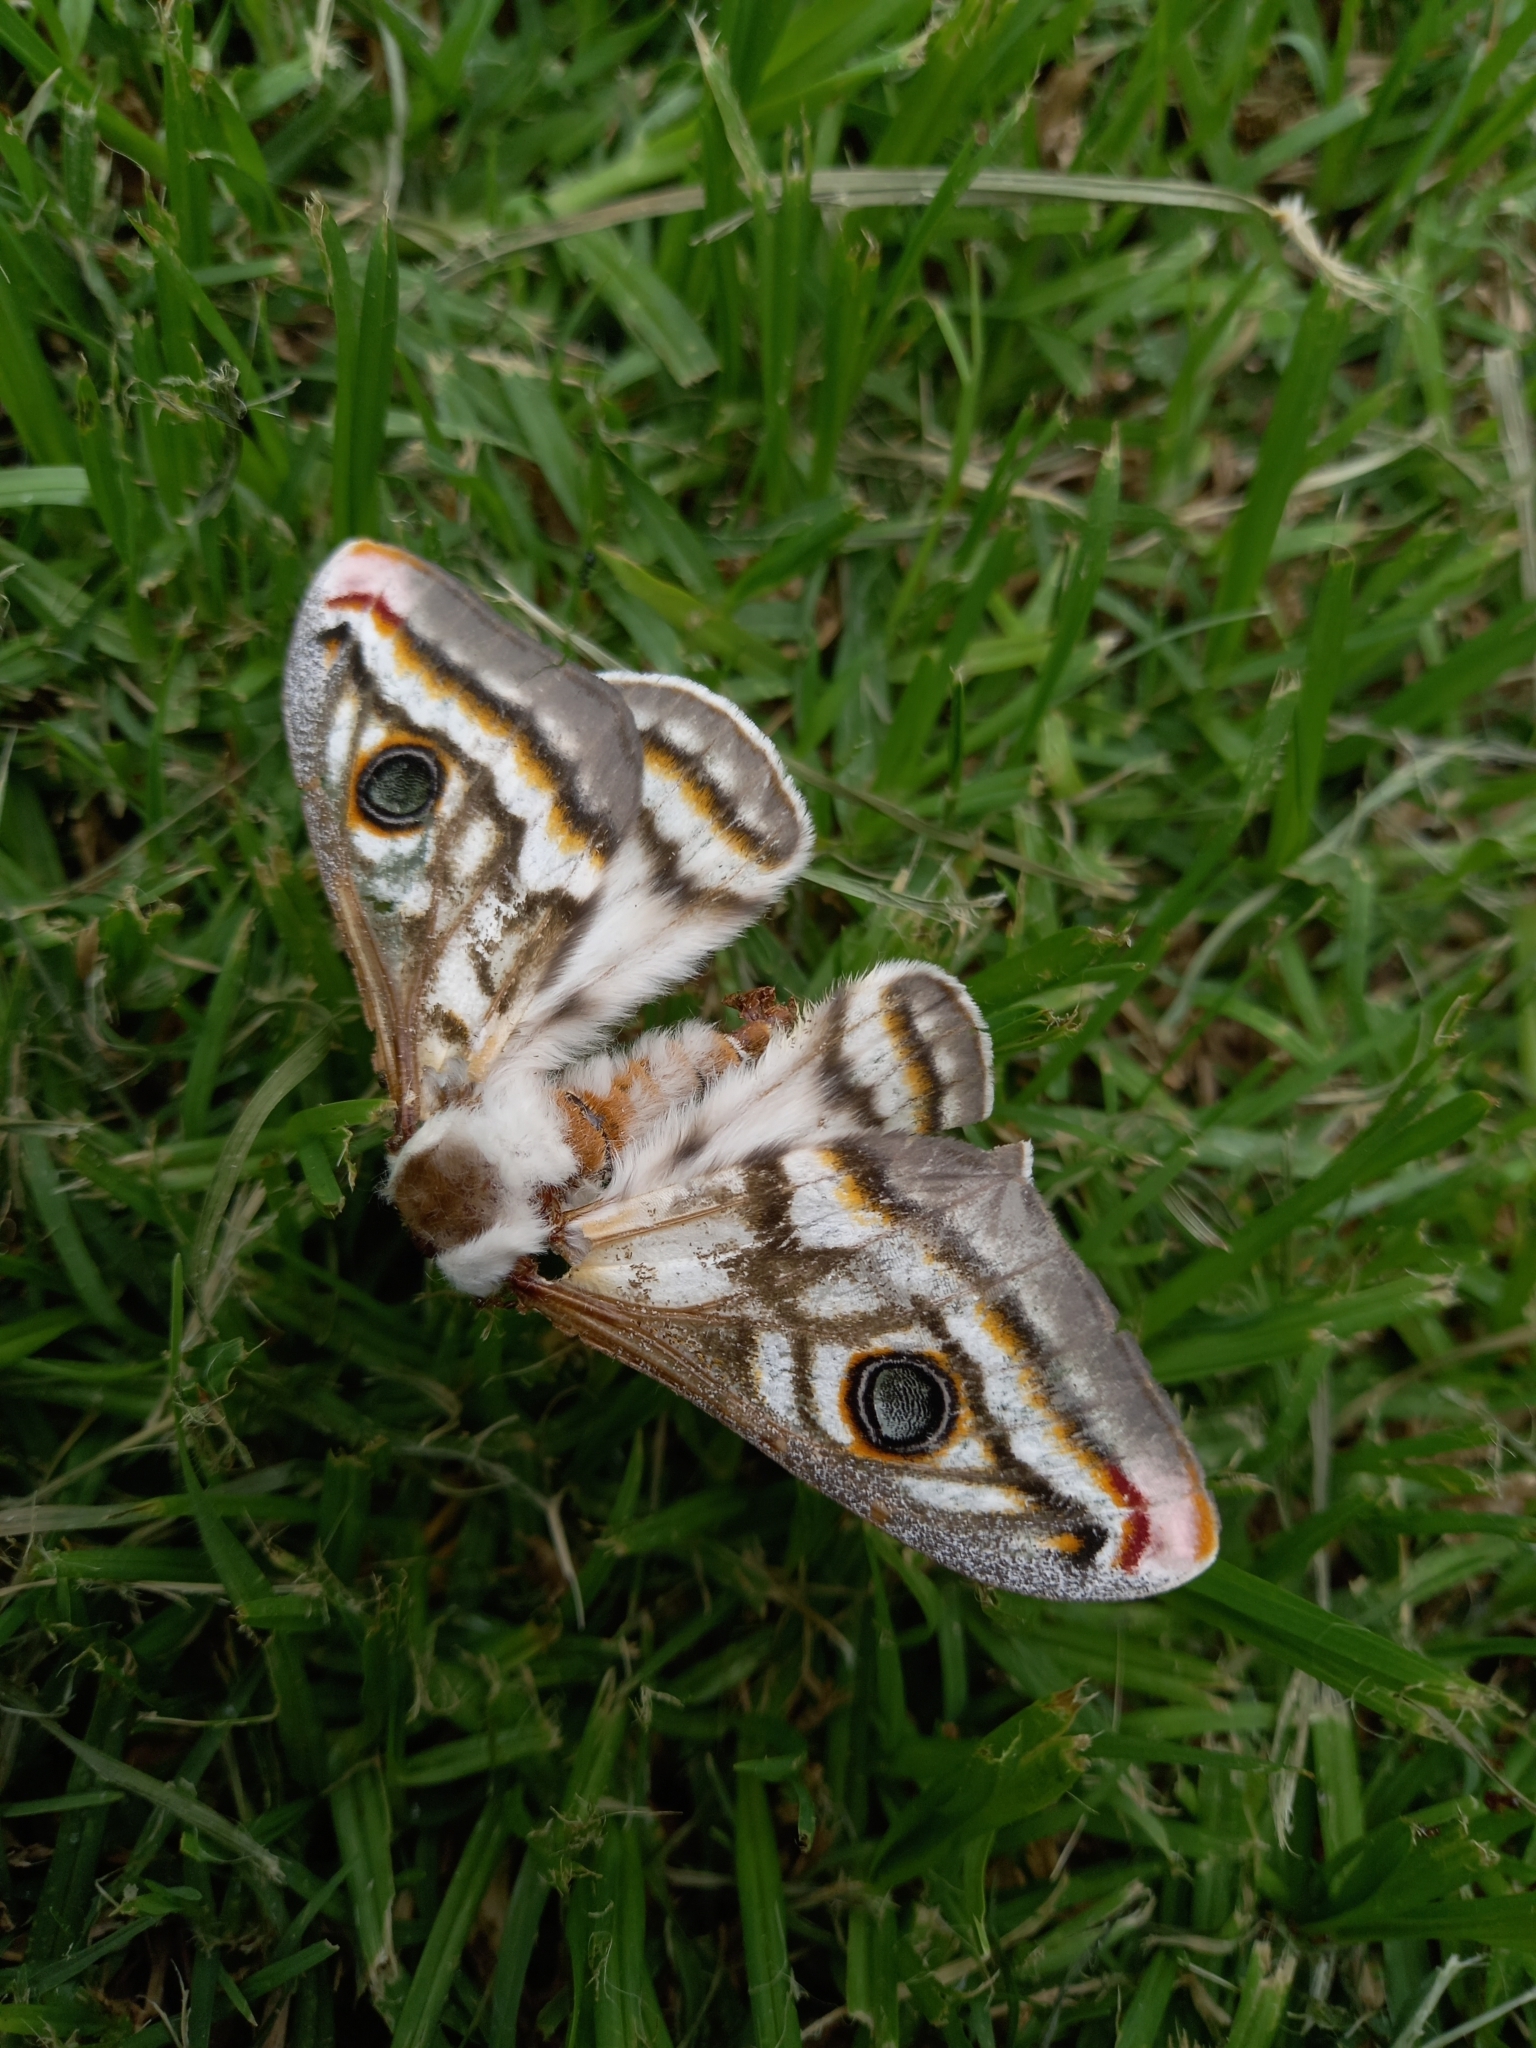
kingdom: Animalia
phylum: Arthropoda
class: Insecta
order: Lepidoptera
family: Saturniidae
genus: Heniocha
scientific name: Heniocha apollonia
